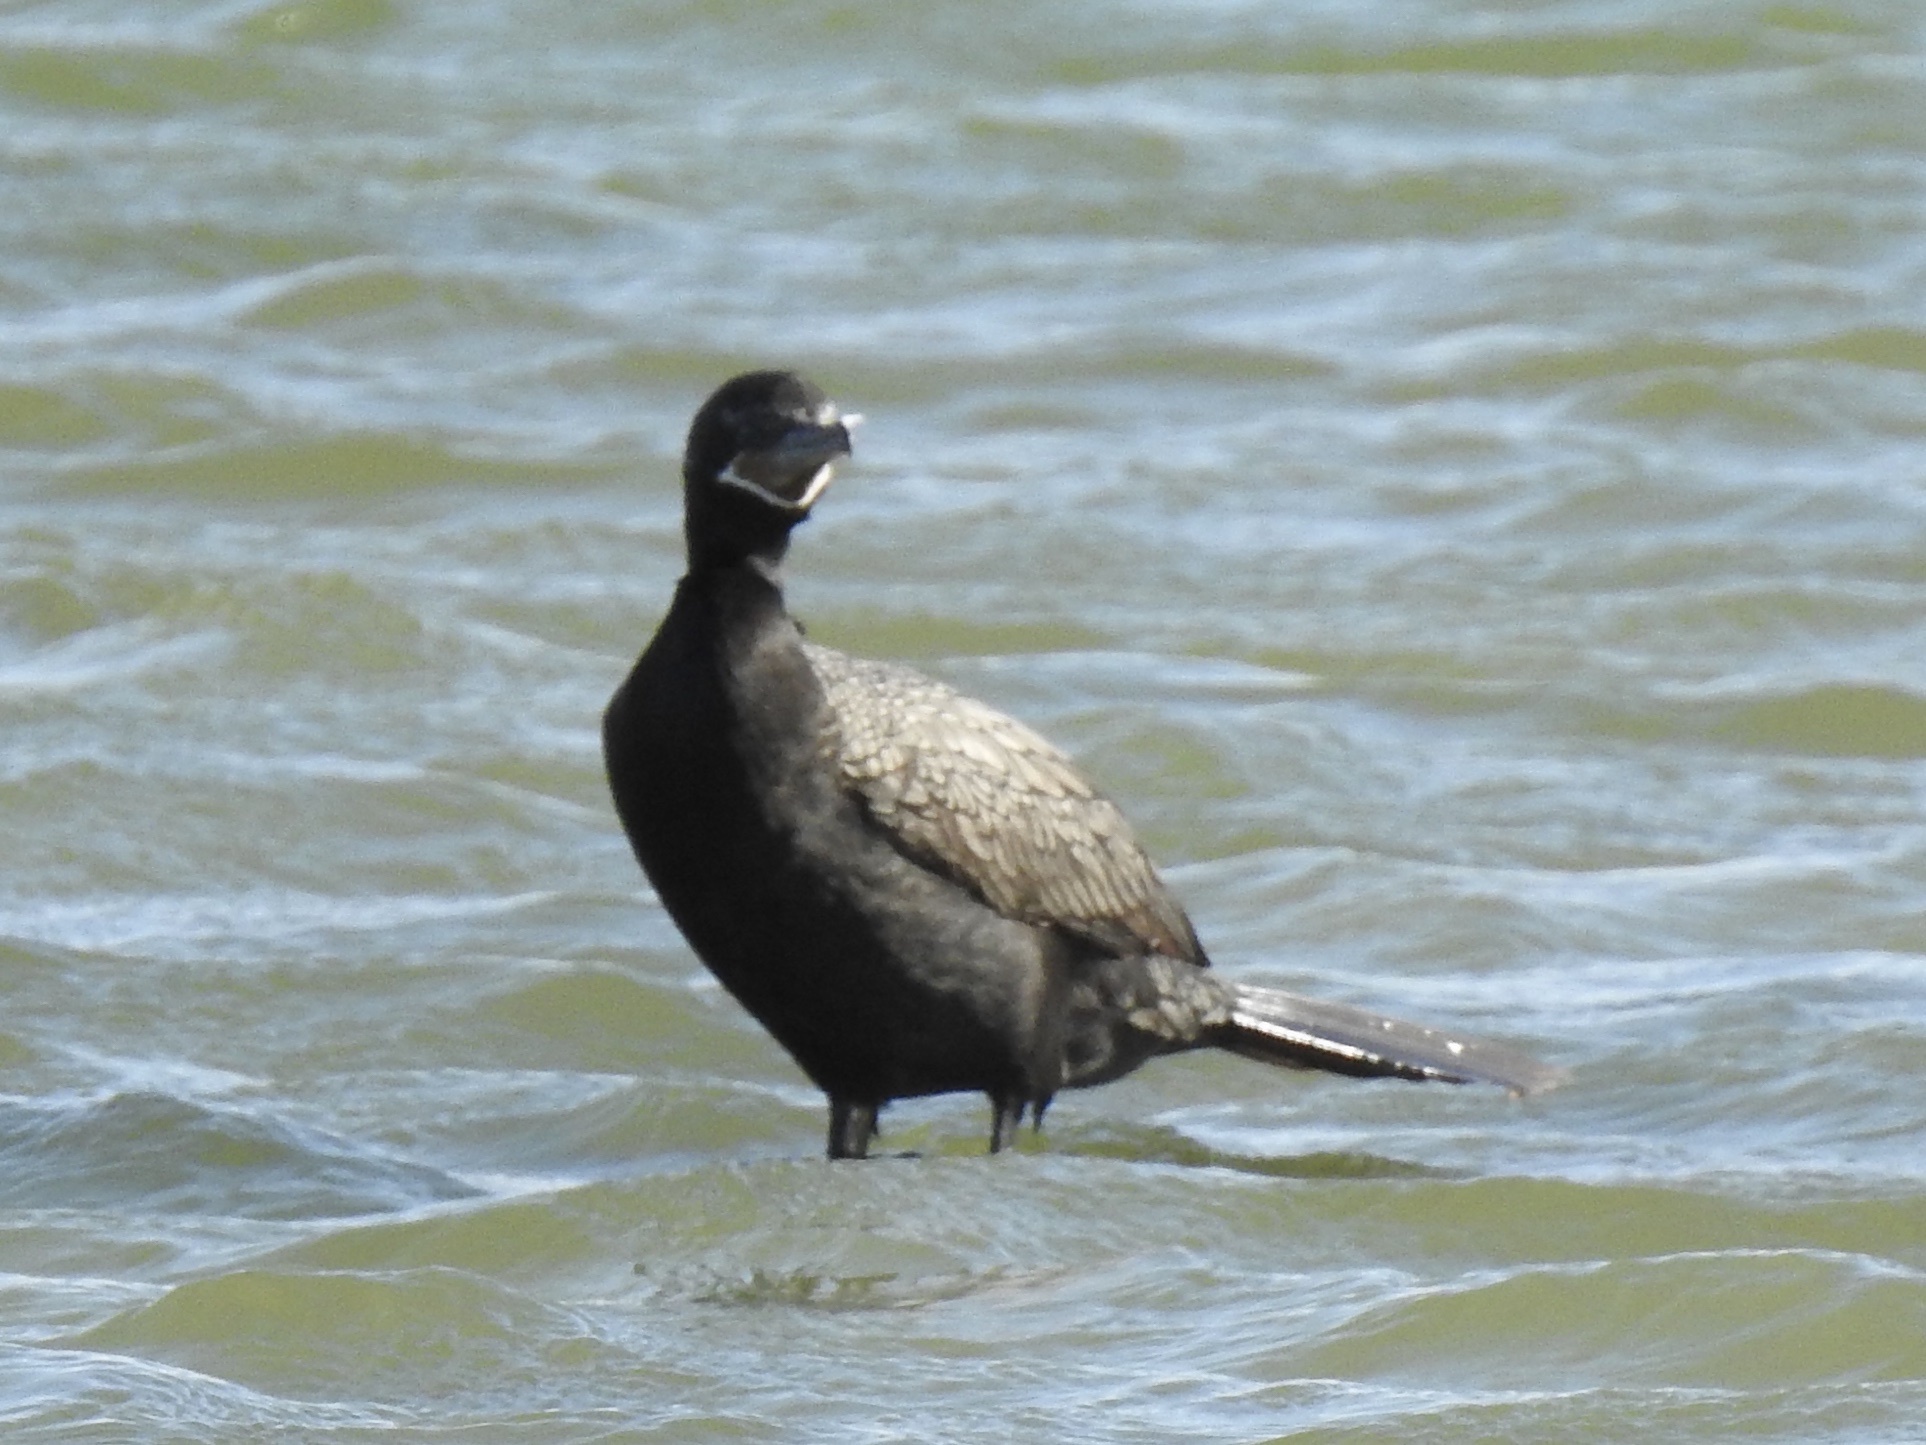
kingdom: Animalia
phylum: Chordata
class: Aves
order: Suliformes
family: Phalacrocoracidae
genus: Phalacrocorax
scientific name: Phalacrocorax brasilianus
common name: Neotropic cormorant
